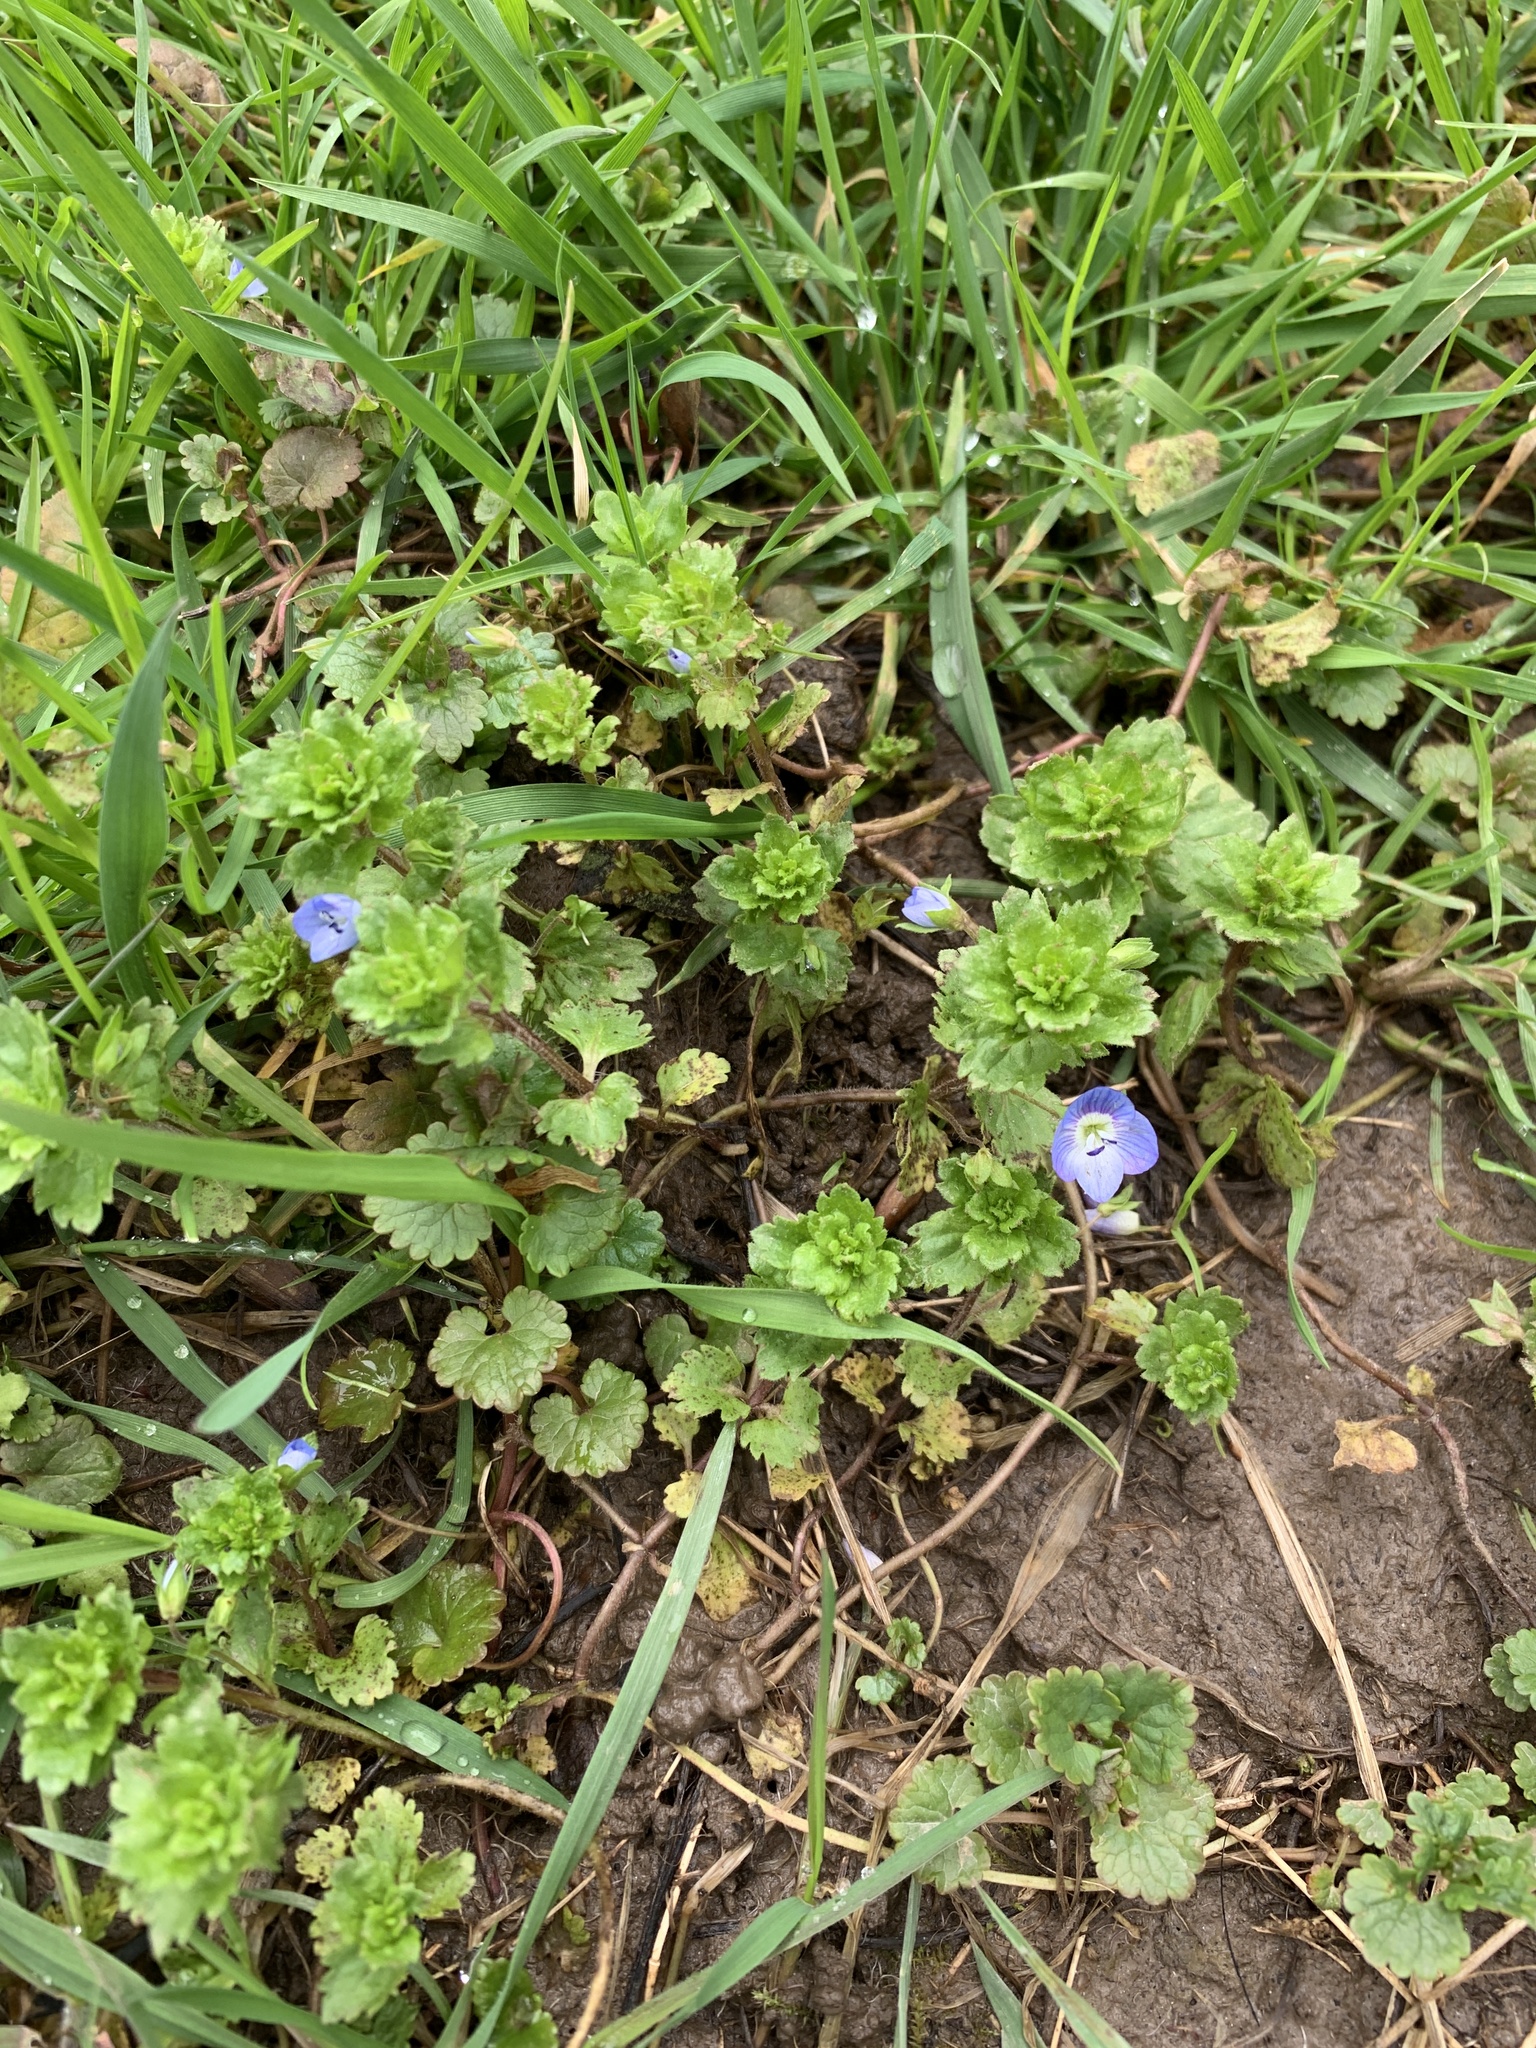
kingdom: Plantae
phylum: Tracheophyta
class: Magnoliopsida
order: Lamiales
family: Plantaginaceae
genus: Veronica
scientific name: Veronica persica
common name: Common field-speedwell
